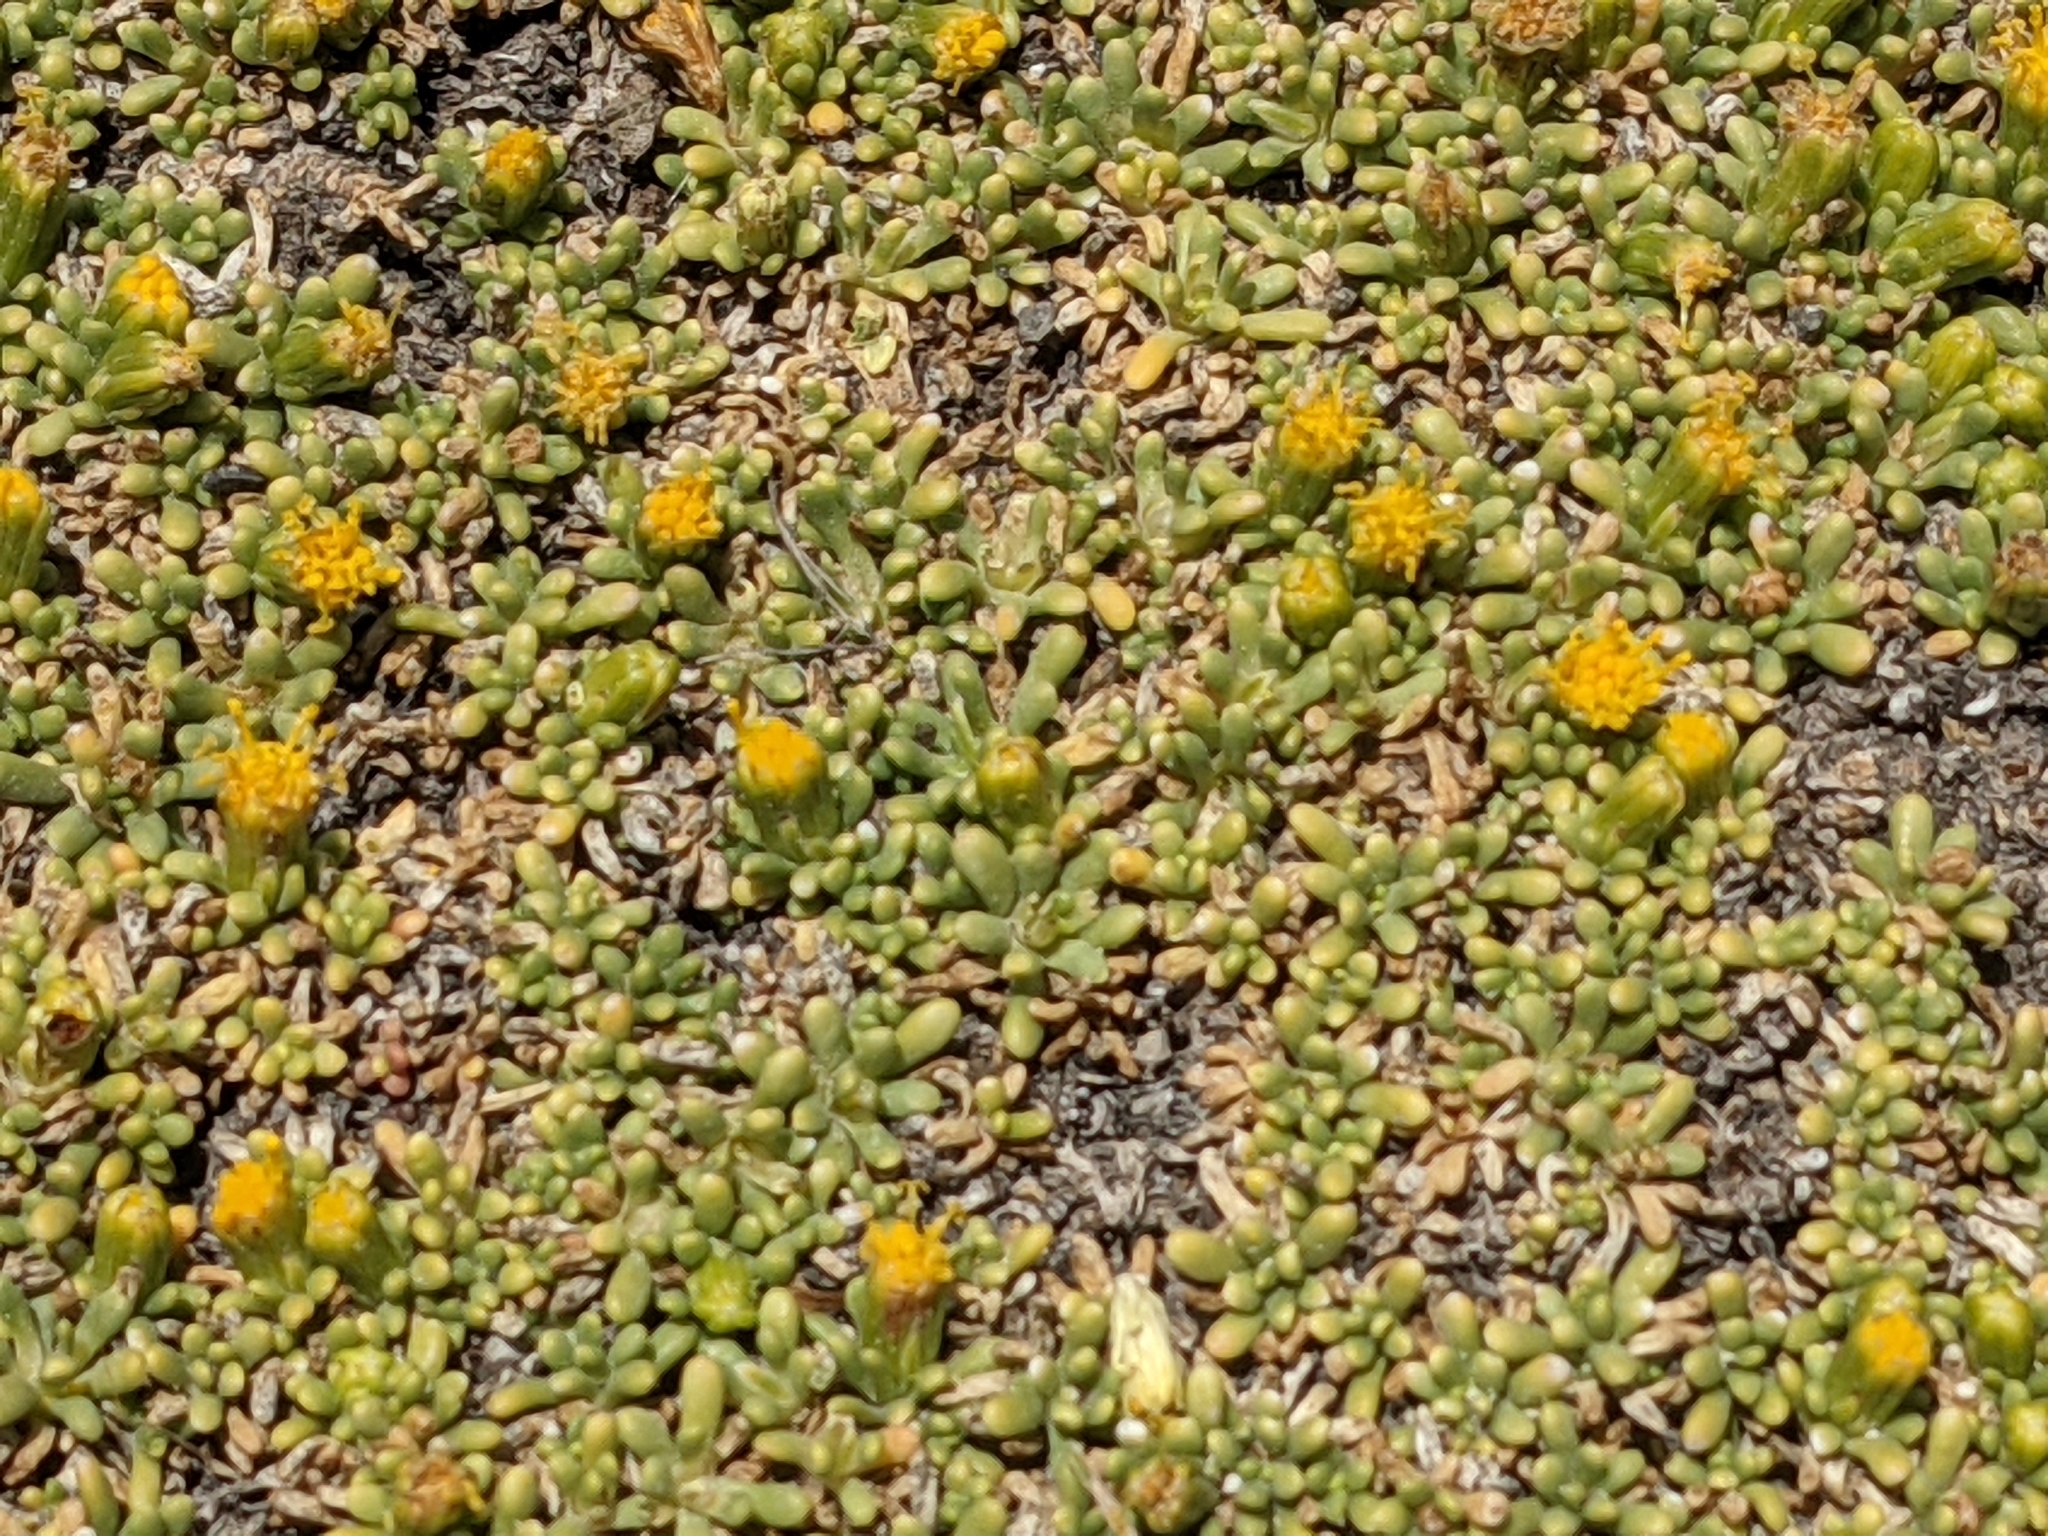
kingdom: Plantae
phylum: Tracheophyta
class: Magnoliopsida
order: Asterales
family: Asteraceae
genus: Senecio
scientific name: Senecio humillimus
